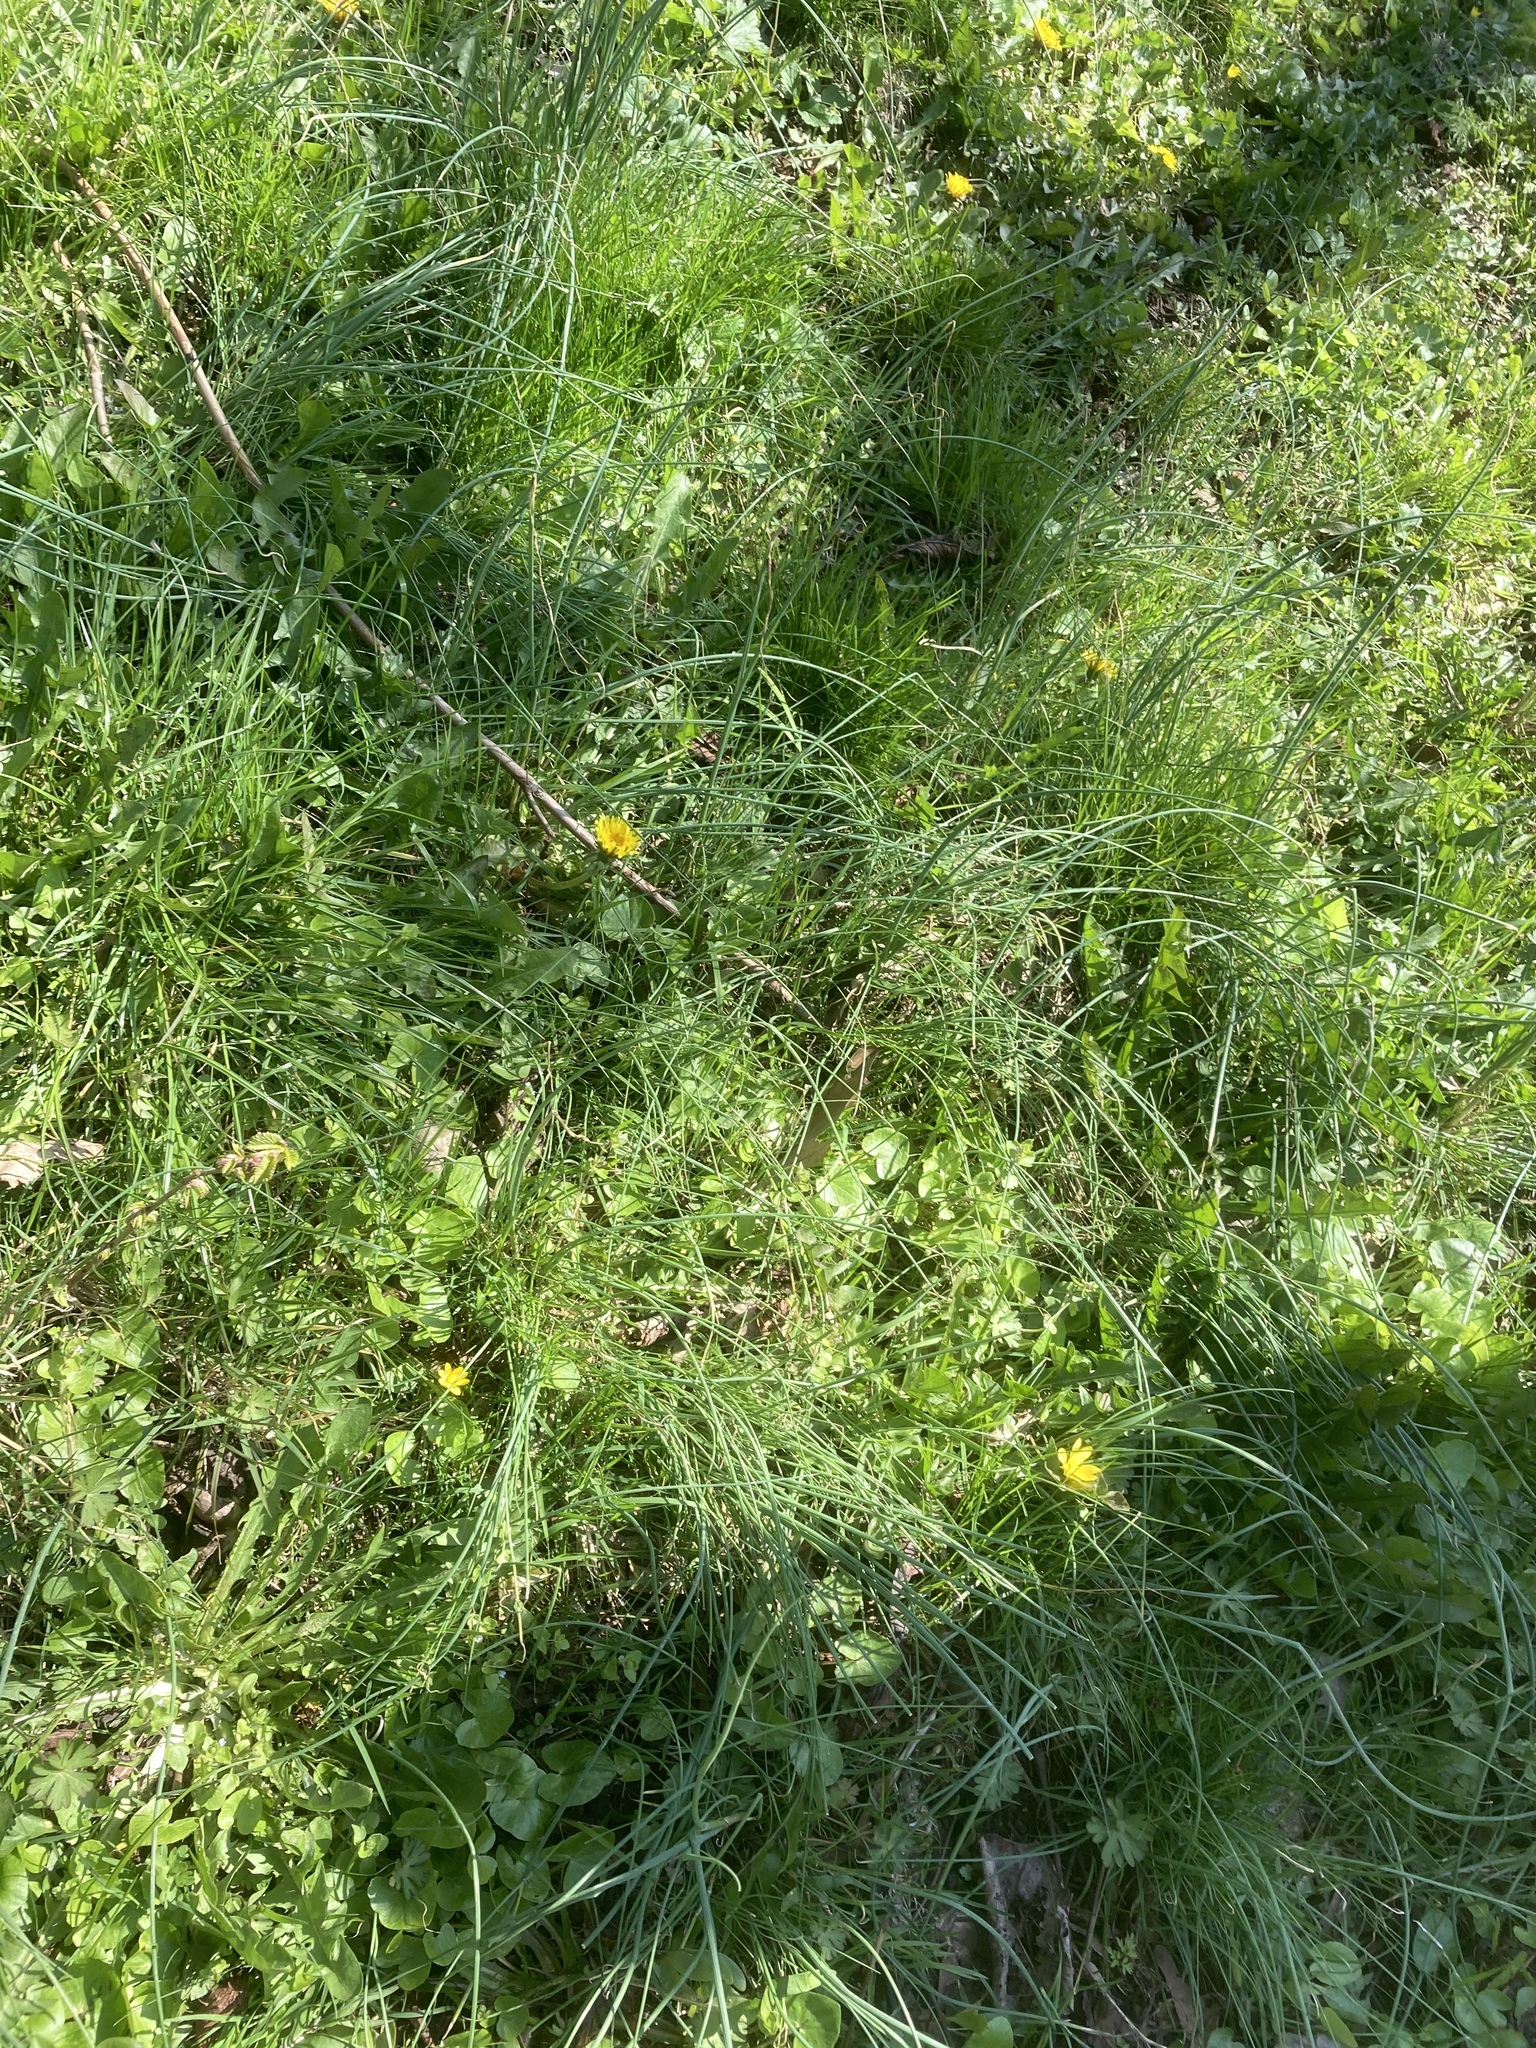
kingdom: Plantae
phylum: Tracheophyta
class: Magnoliopsida
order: Ranunculales
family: Ranunculaceae
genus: Ficaria
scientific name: Ficaria verna
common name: Lesser celandine
